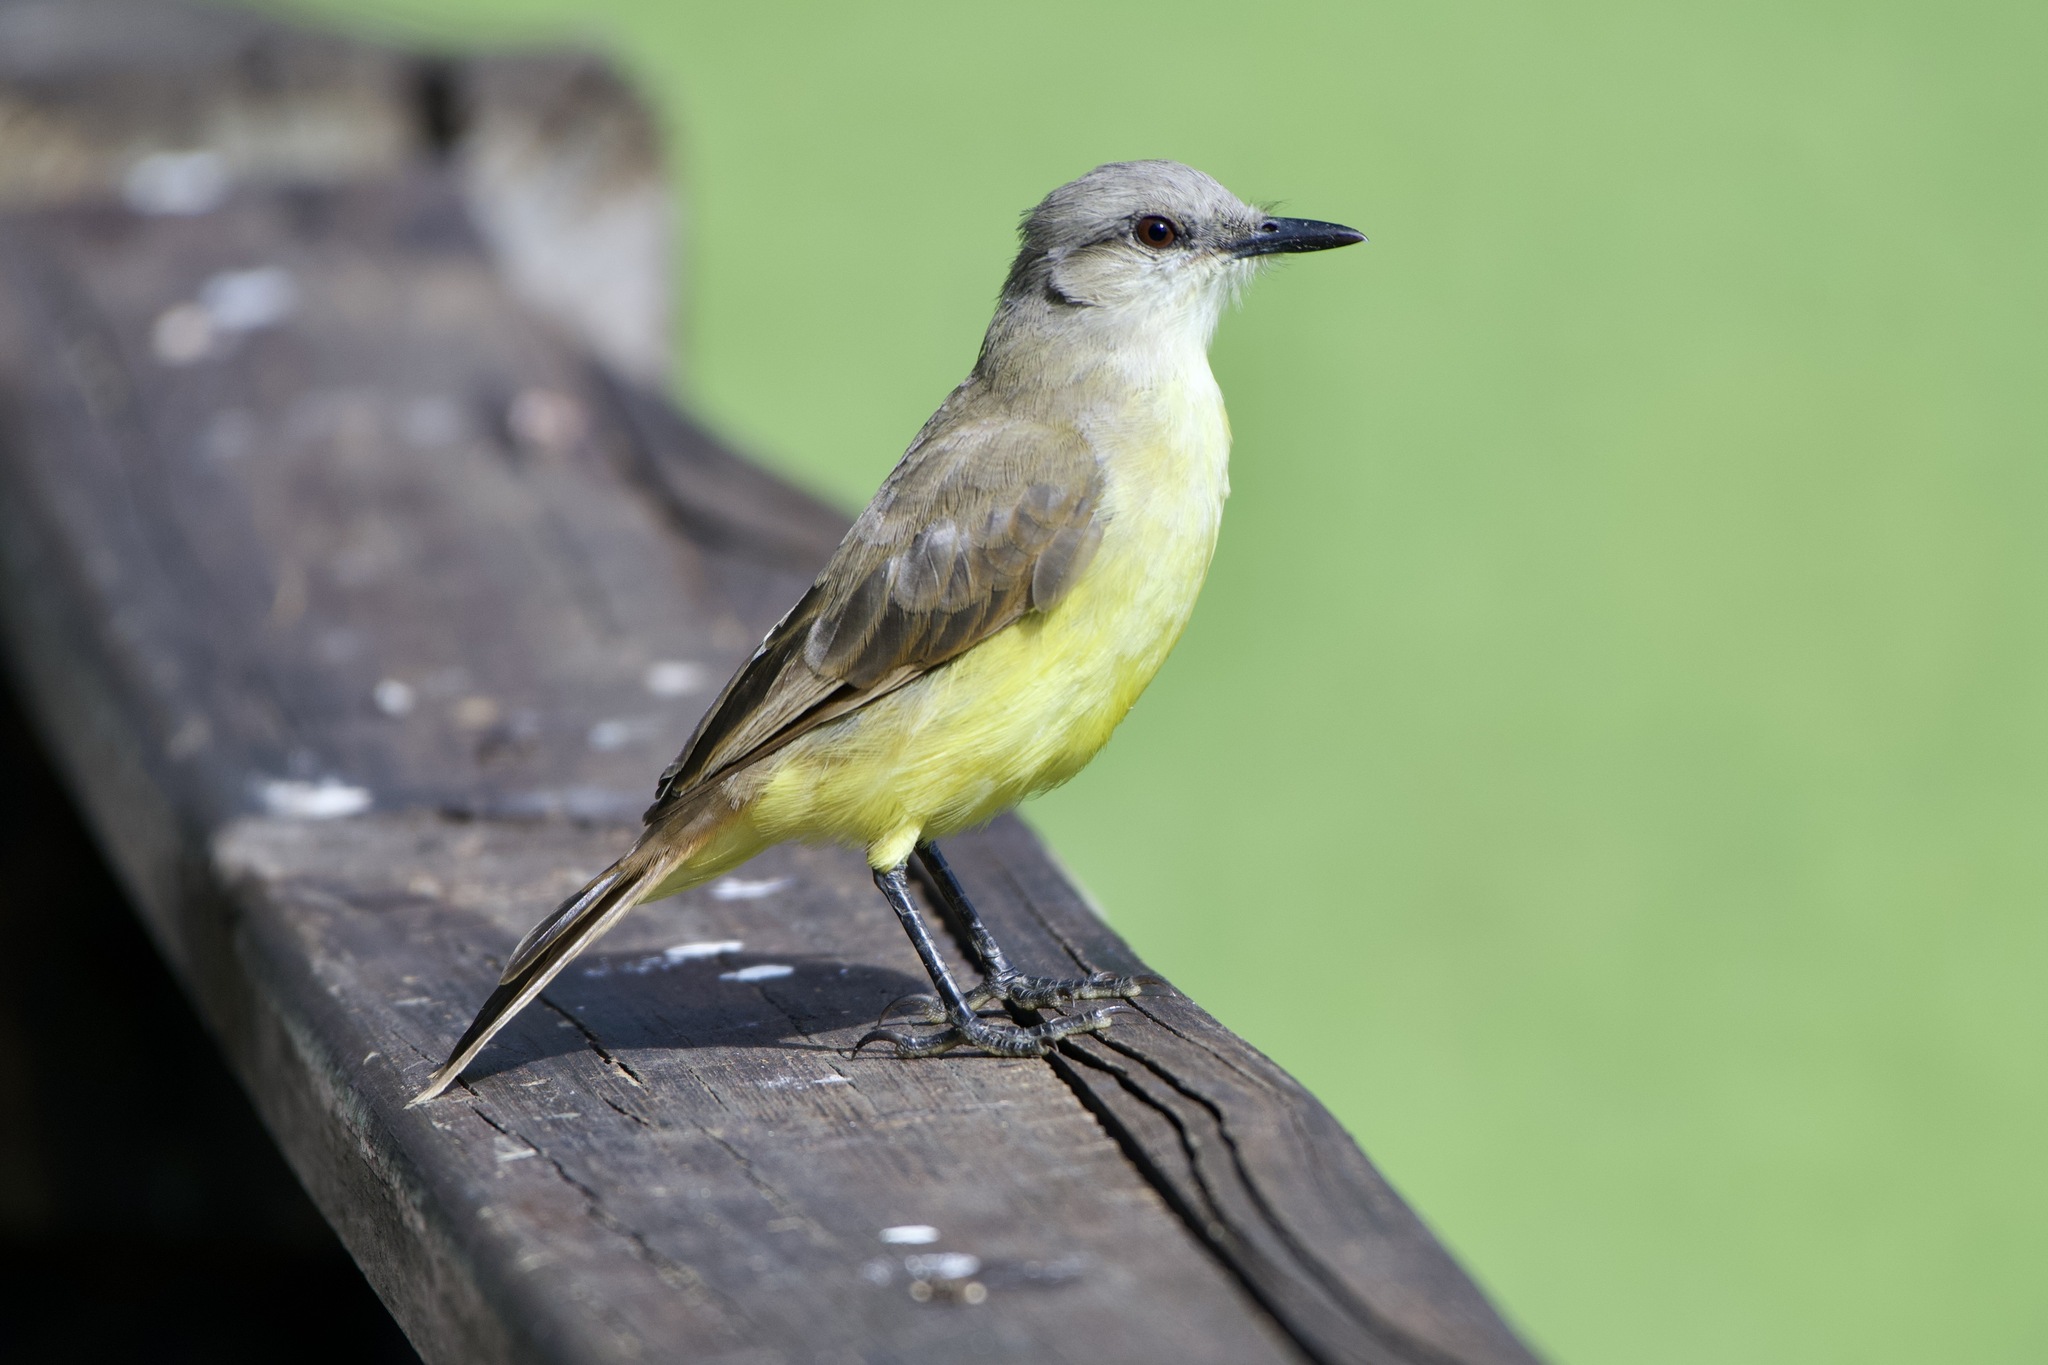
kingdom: Animalia
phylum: Chordata
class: Aves
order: Passeriformes
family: Tyrannidae
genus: Machetornis
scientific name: Machetornis rixosa
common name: Cattle tyrant
